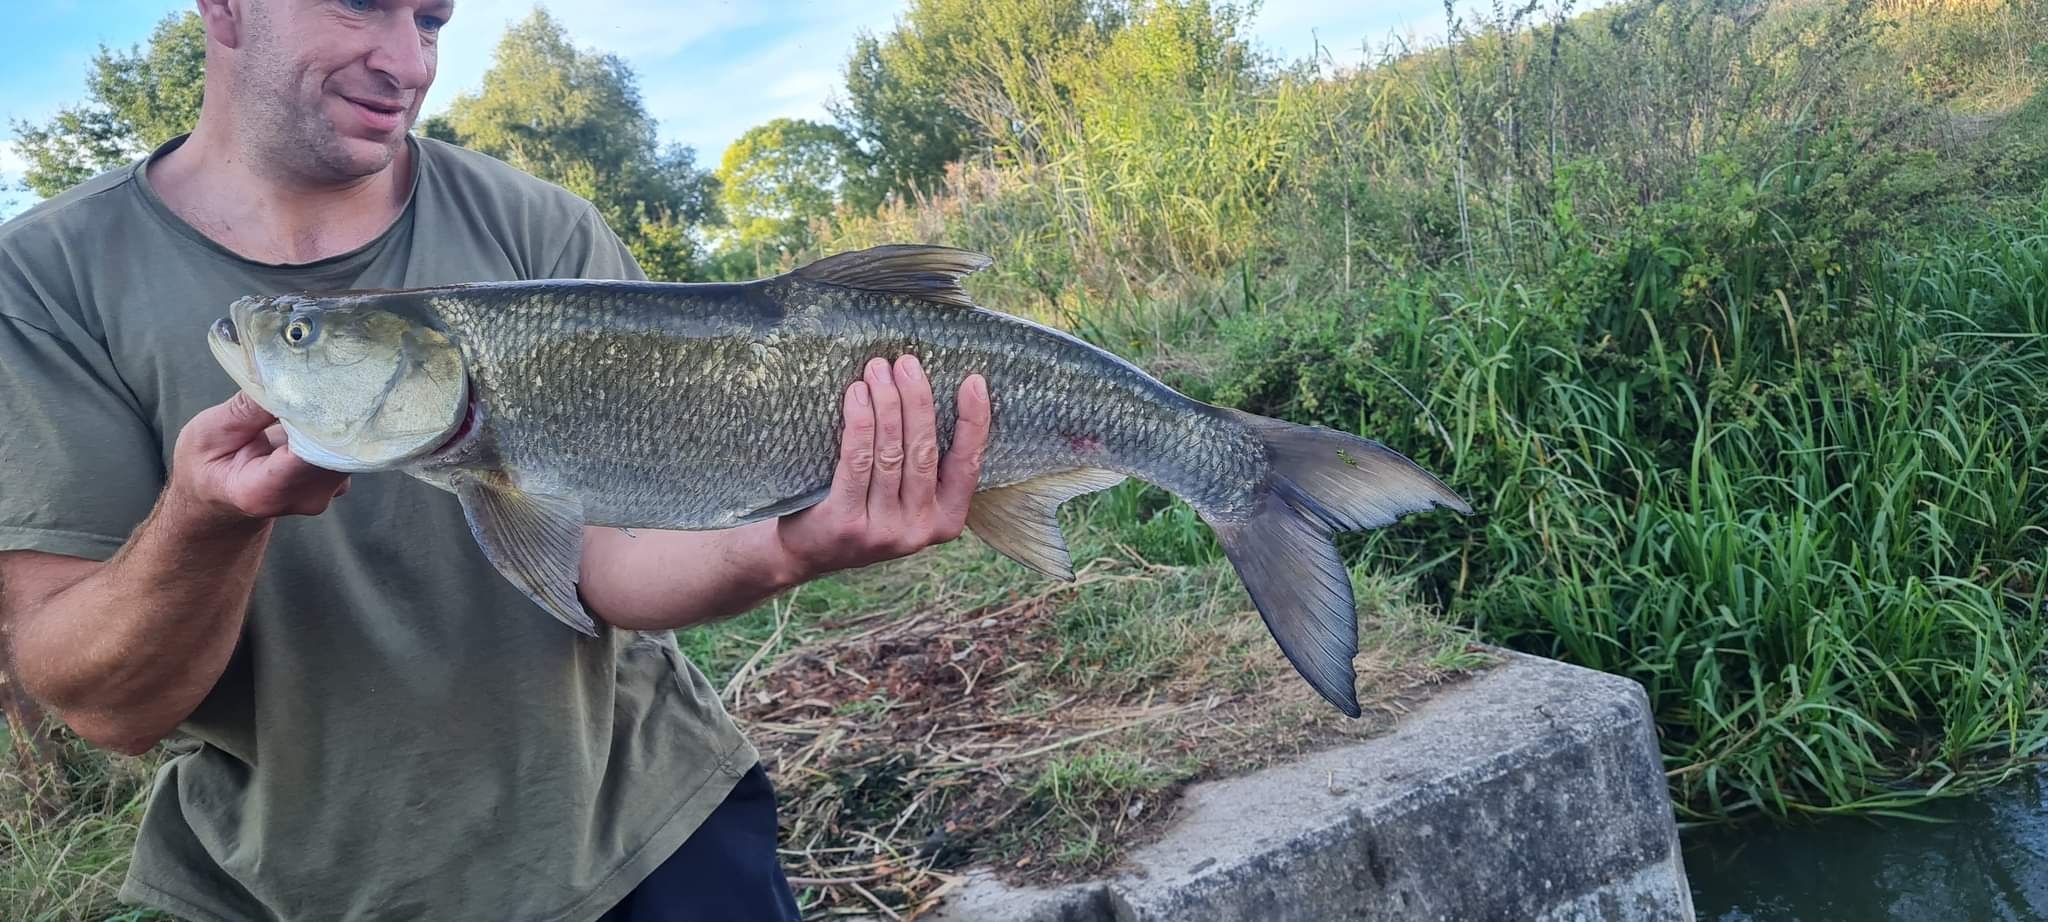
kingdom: Animalia
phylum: Chordata
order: Cypriniformes
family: Cyprinidae
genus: Leuciscus
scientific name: Leuciscus aspius
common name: Asp
